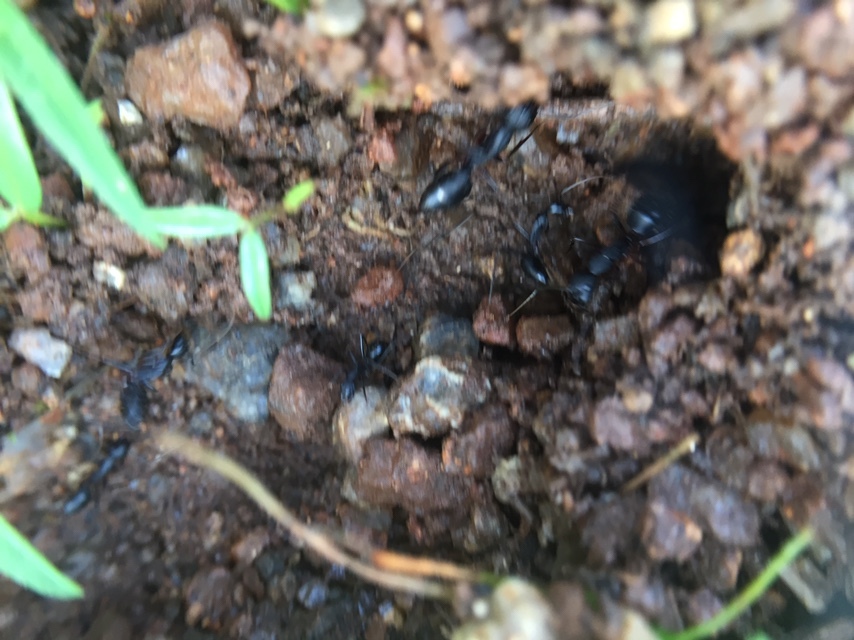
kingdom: Animalia
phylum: Arthropoda
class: Insecta
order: Hymenoptera
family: Formicidae
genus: Camponotus
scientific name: Camponotus compressus
